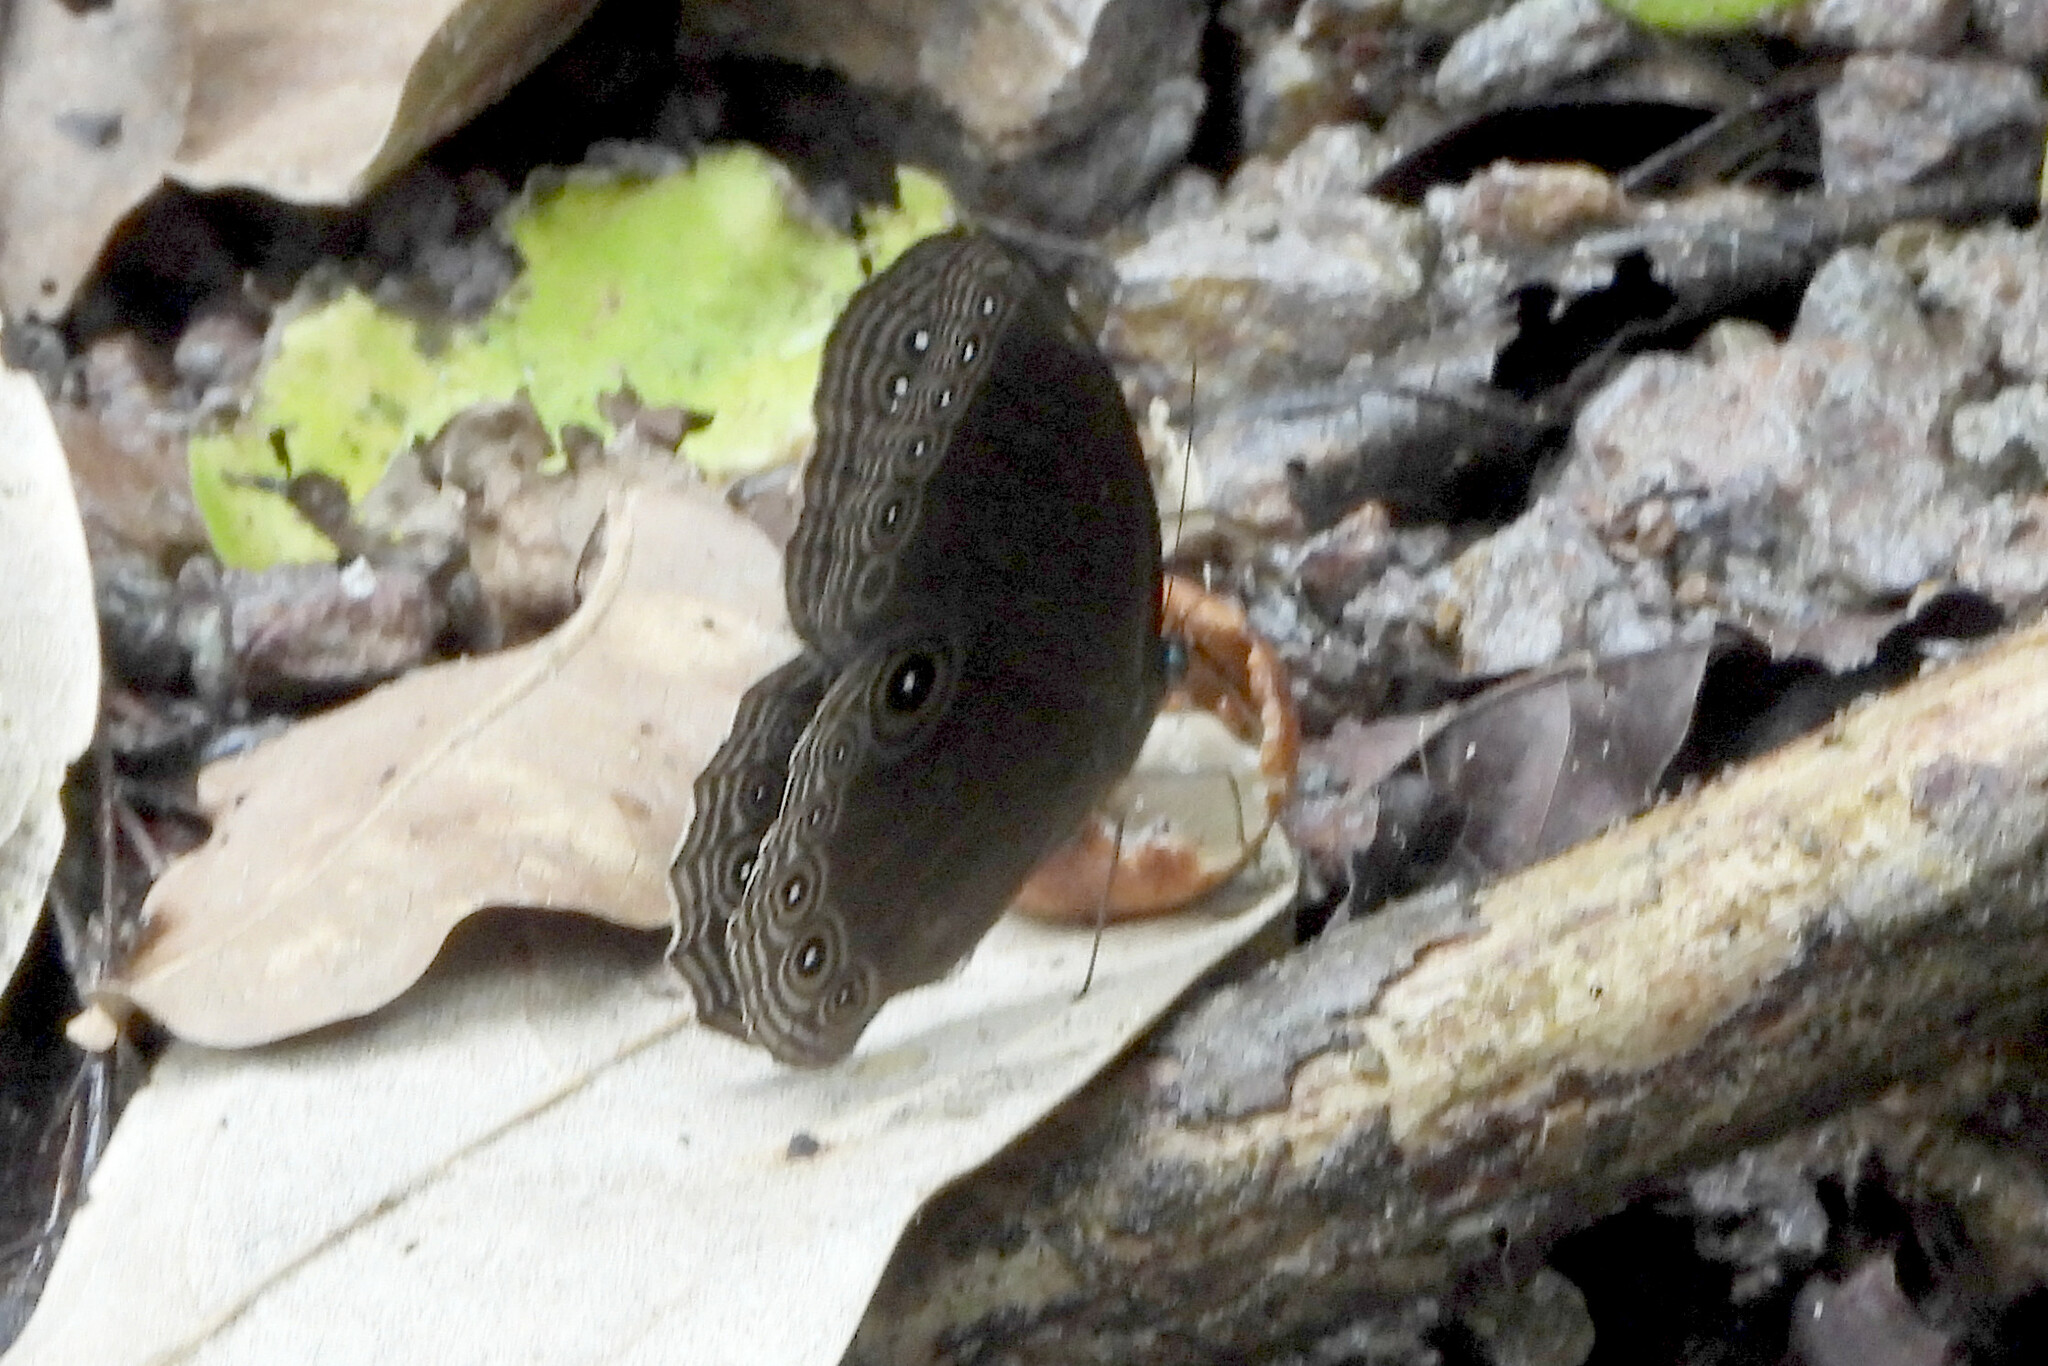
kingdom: Animalia
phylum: Arthropoda
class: Insecta
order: Lepidoptera
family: Nymphalidae
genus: Ethope
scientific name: Ethope himachala
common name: Dusky diadem
